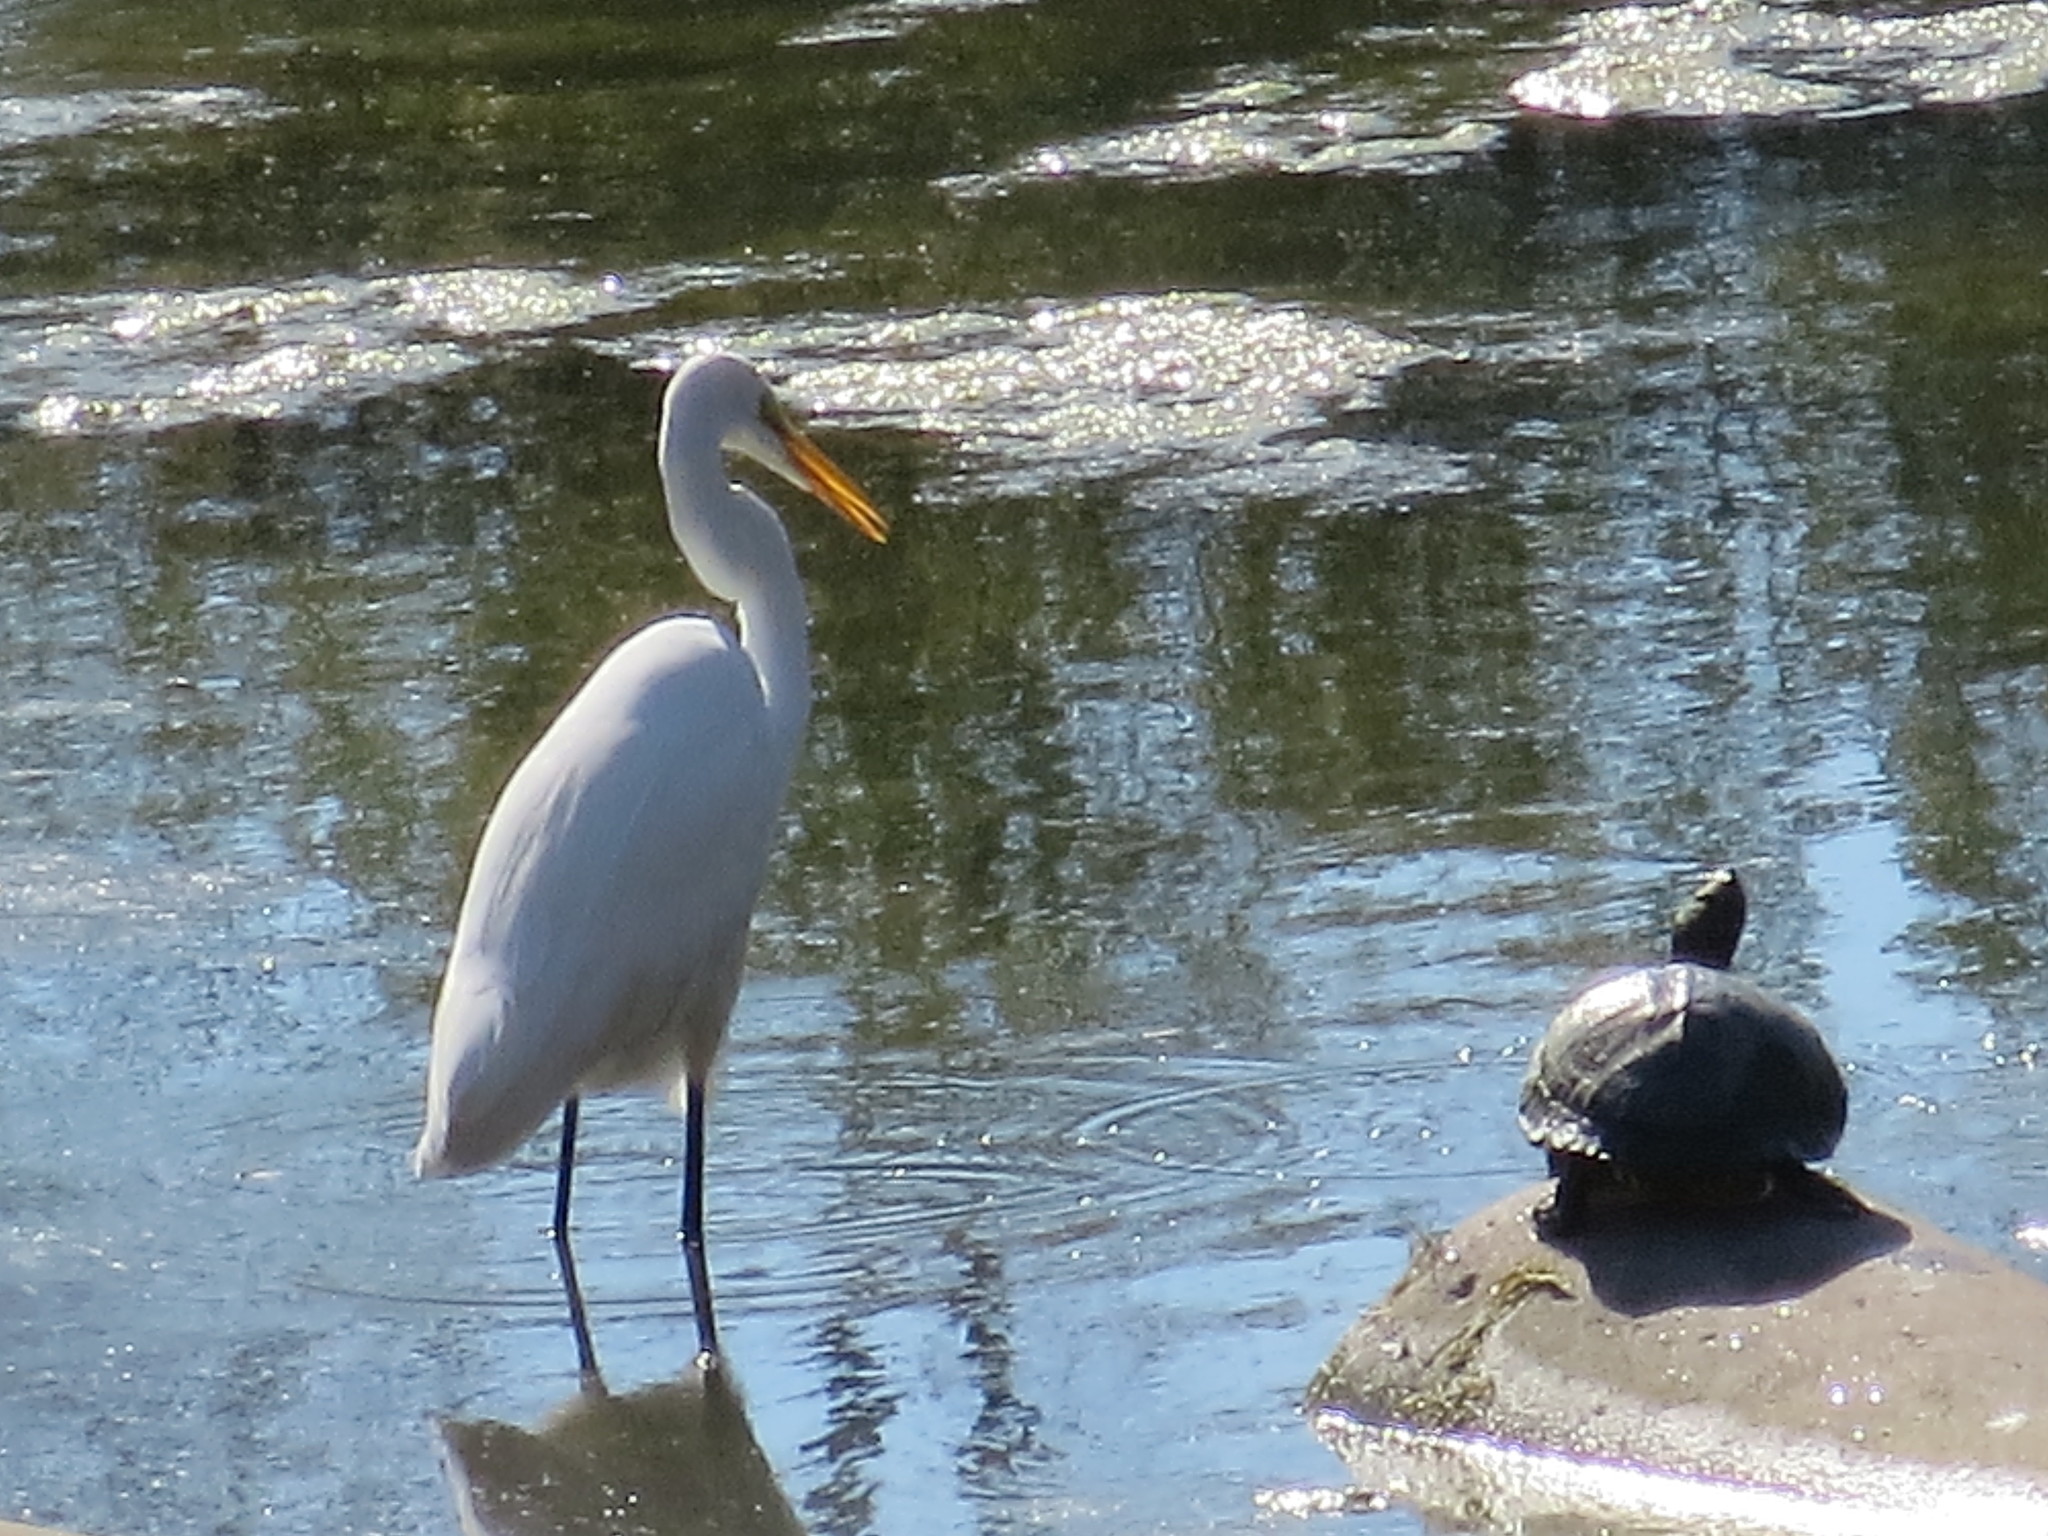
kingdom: Animalia
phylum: Chordata
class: Testudines
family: Emydidae
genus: Trachemys
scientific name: Trachemys scripta
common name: Slider
